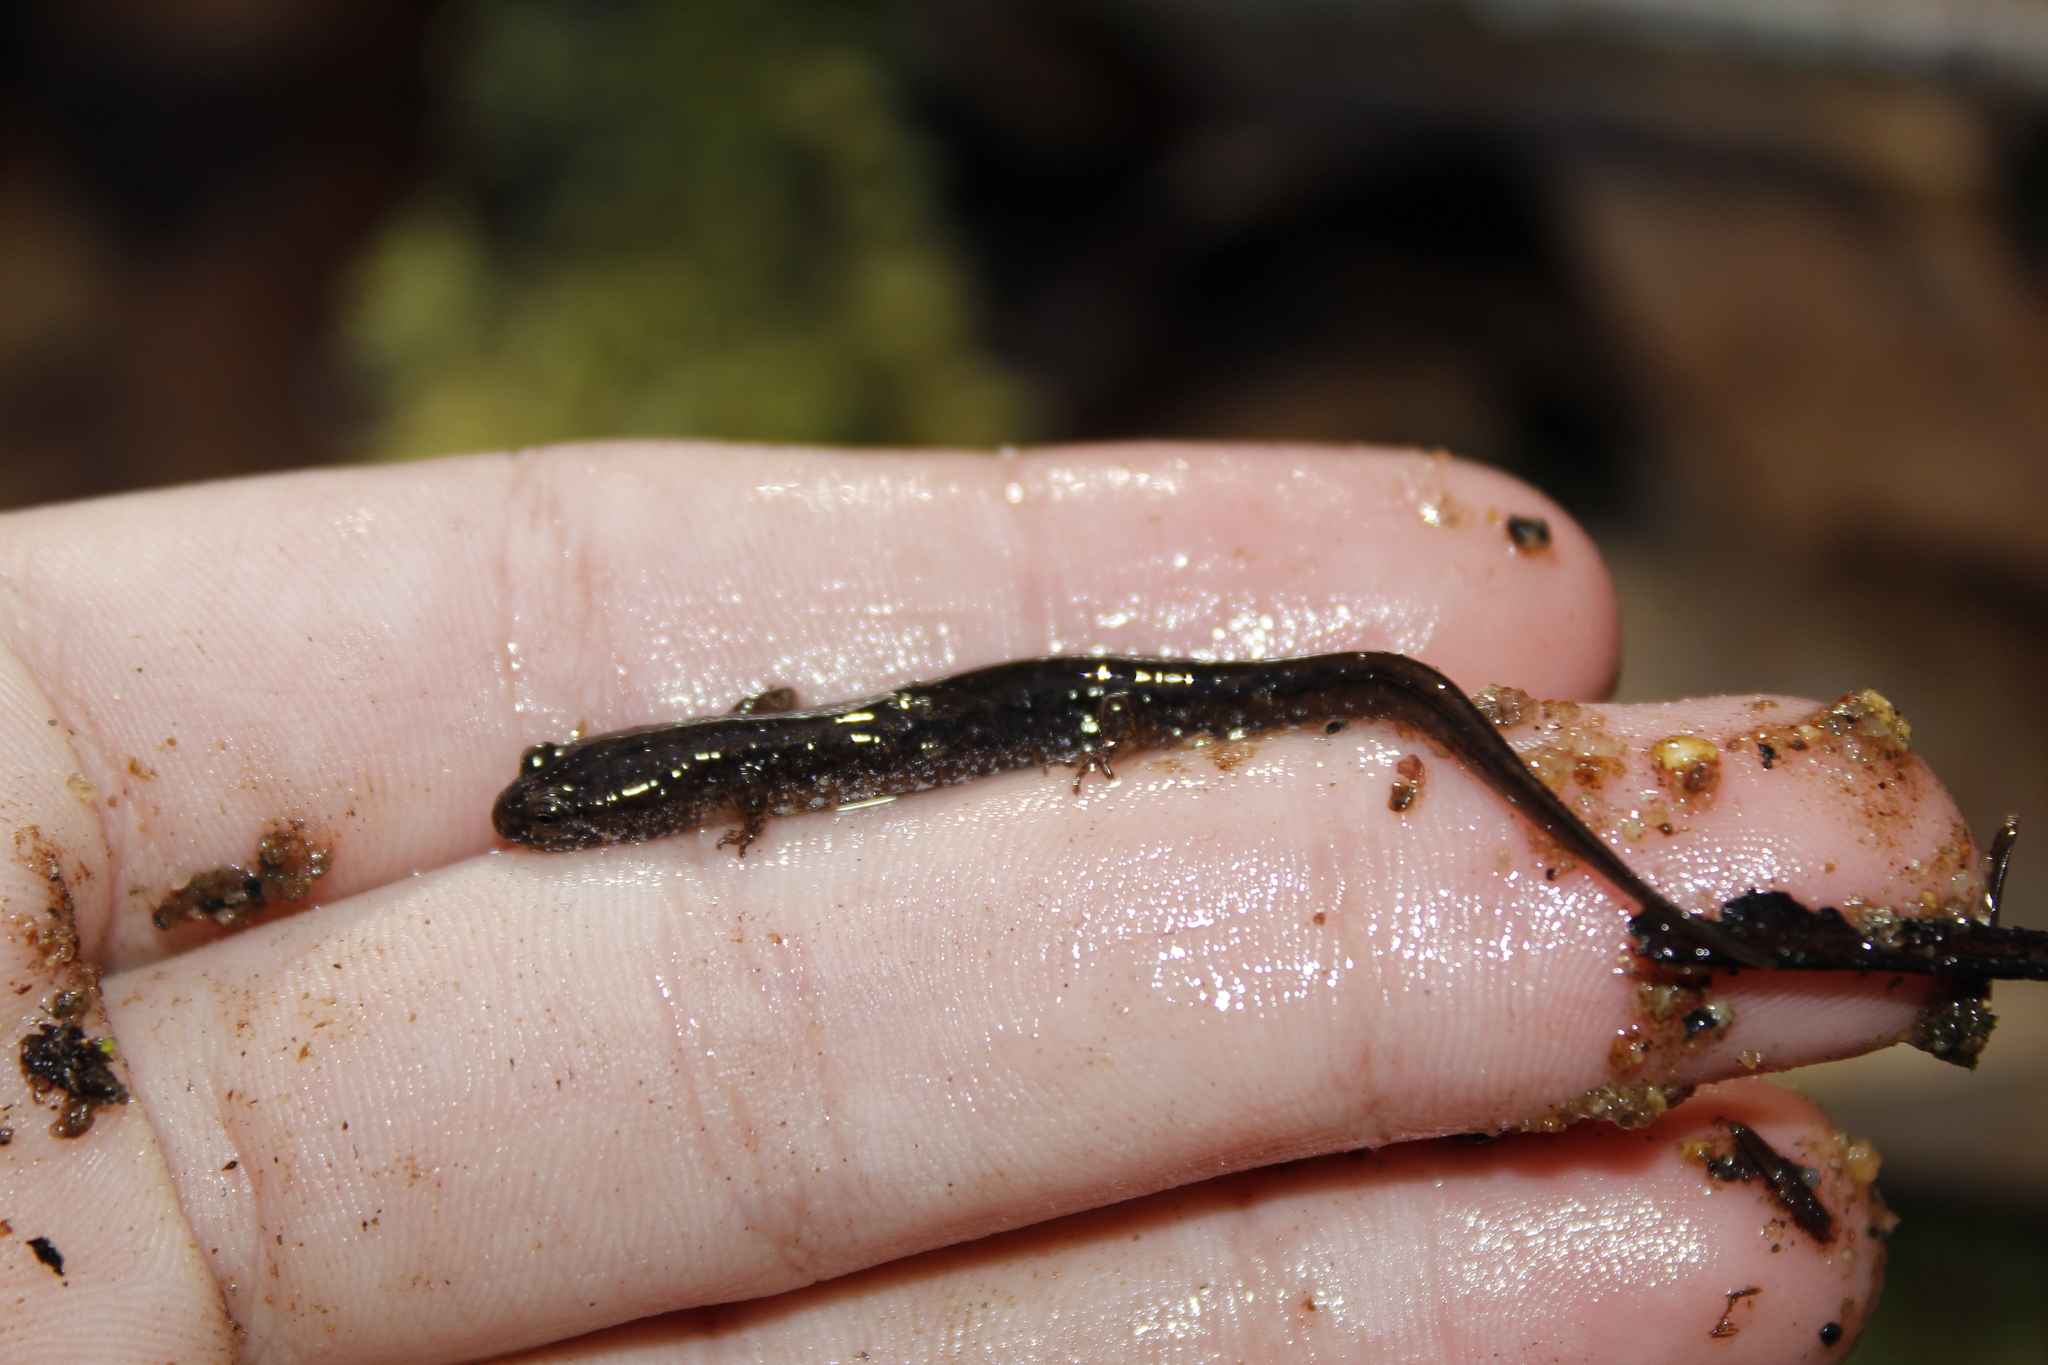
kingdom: Animalia
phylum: Chordata
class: Amphibia
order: Caudata
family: Plethodontidae
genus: Desmognathus
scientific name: Desmognathus fuscus
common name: Northern dusky salamander
